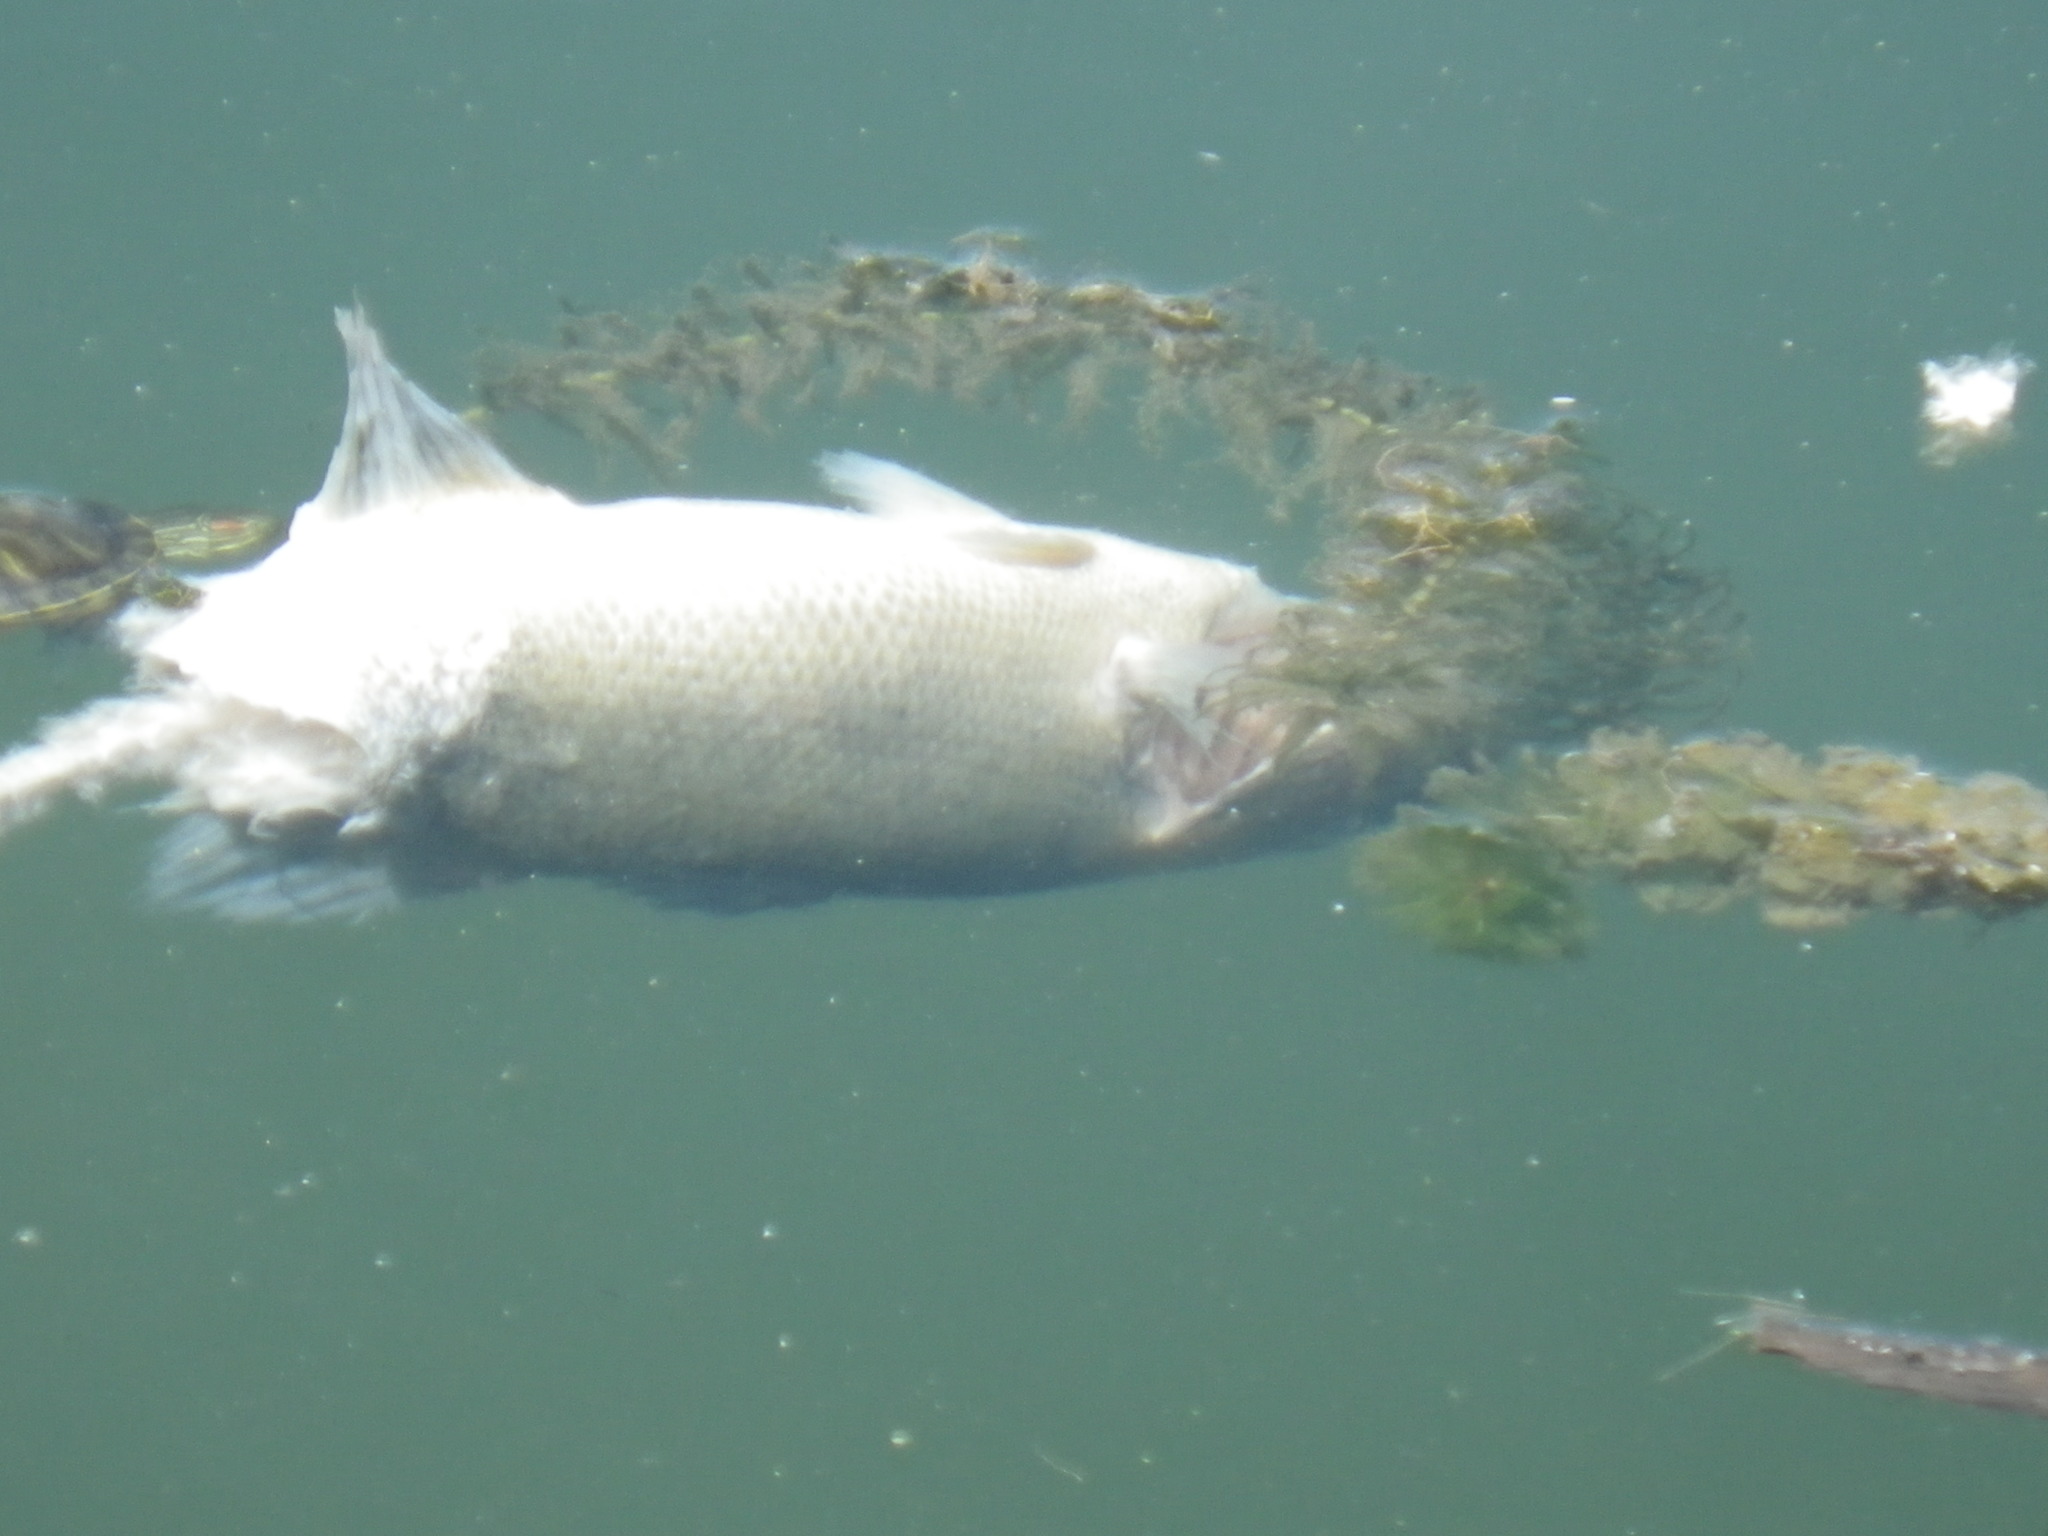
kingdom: Animalia
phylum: Chordata
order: Perciformes
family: Centrarchidae
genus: Micropterus
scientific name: Micropterus
